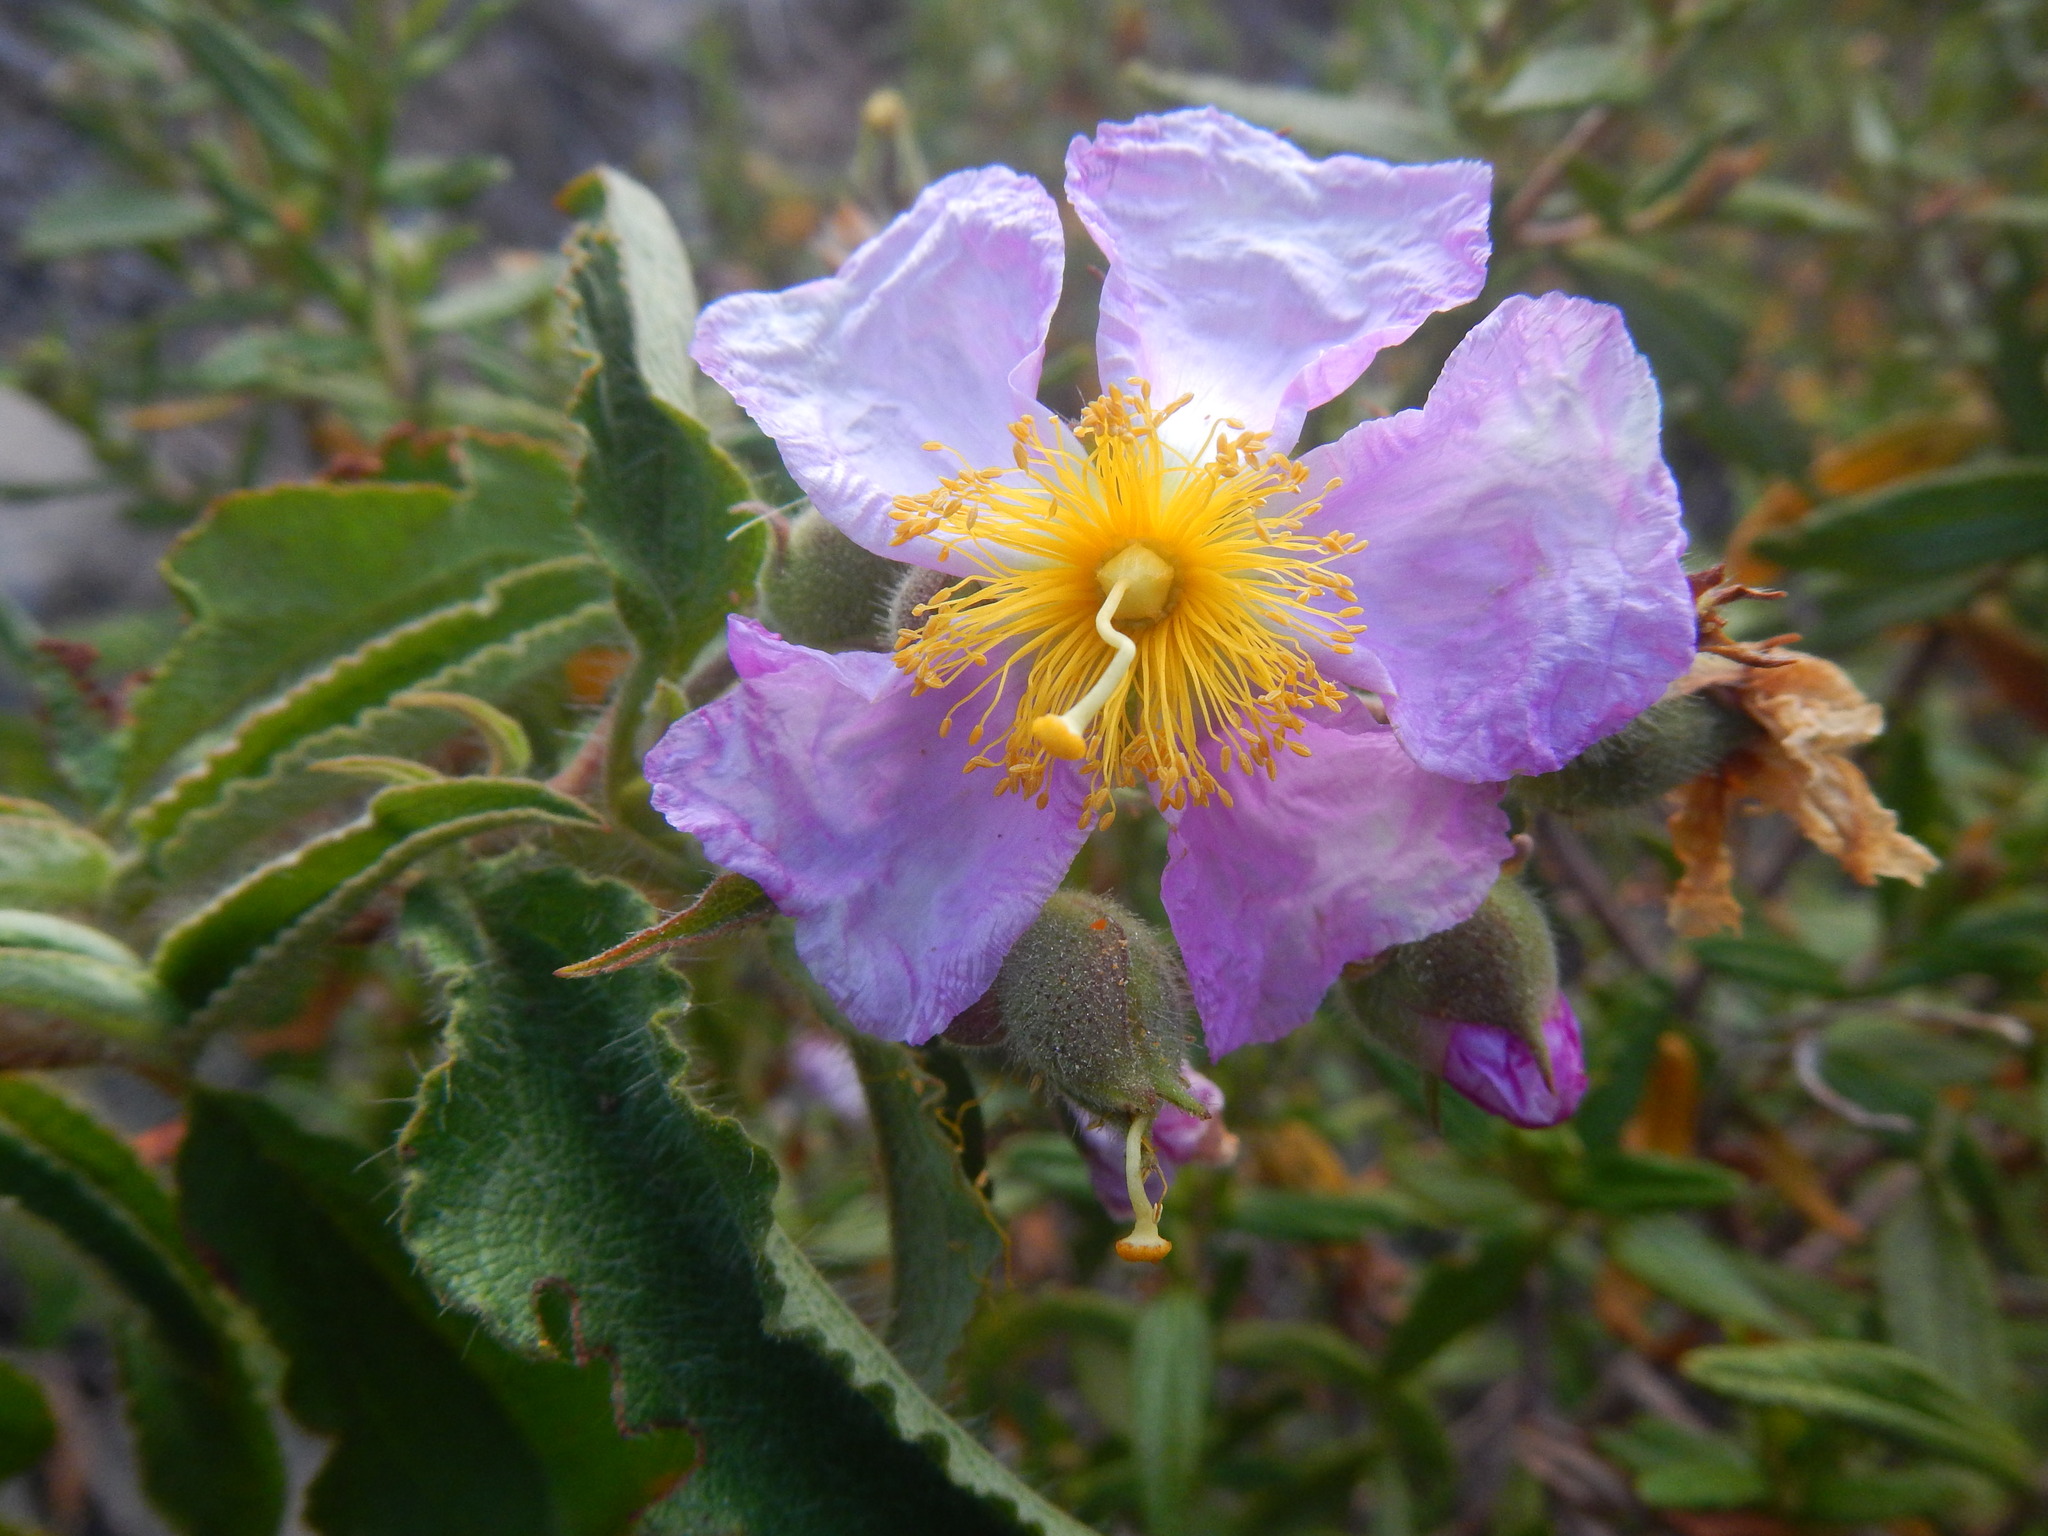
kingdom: Plantae
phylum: Tracheophyta
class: Magnoliopsida
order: Malvales
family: Cistaceae
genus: Cistus
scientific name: Cistus symphytifolius
